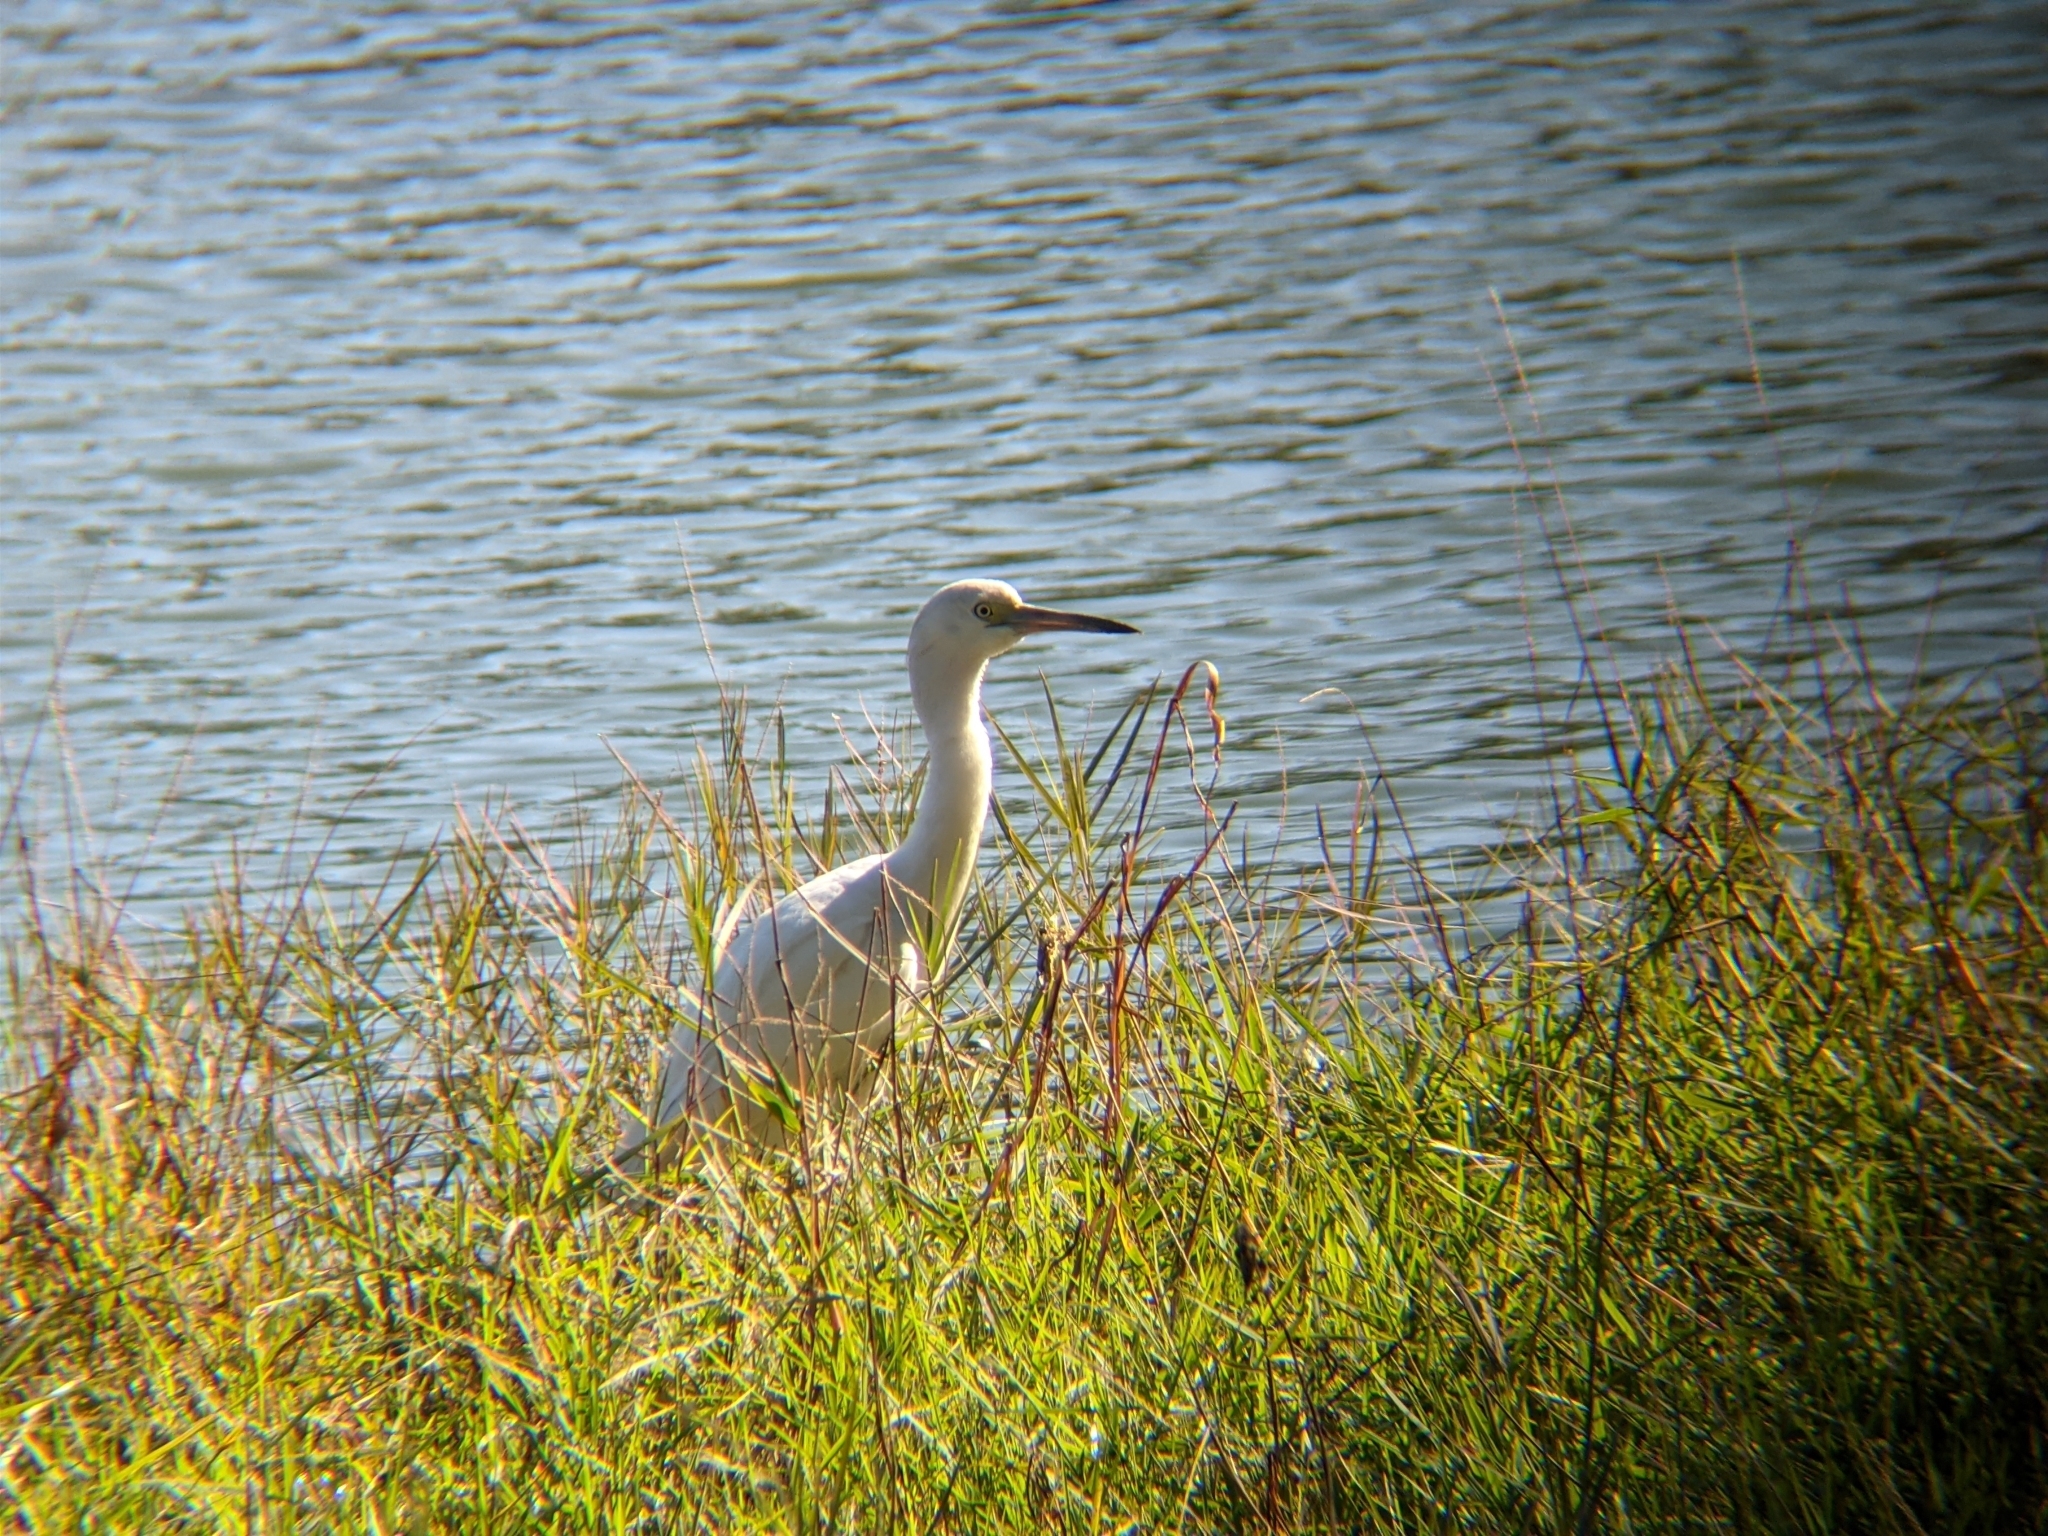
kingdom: Animalia
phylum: Chordata
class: Aves
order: Pelecaniformes
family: Ardeidae
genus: Egretta
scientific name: Egretta caerulea
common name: Little blue heron
